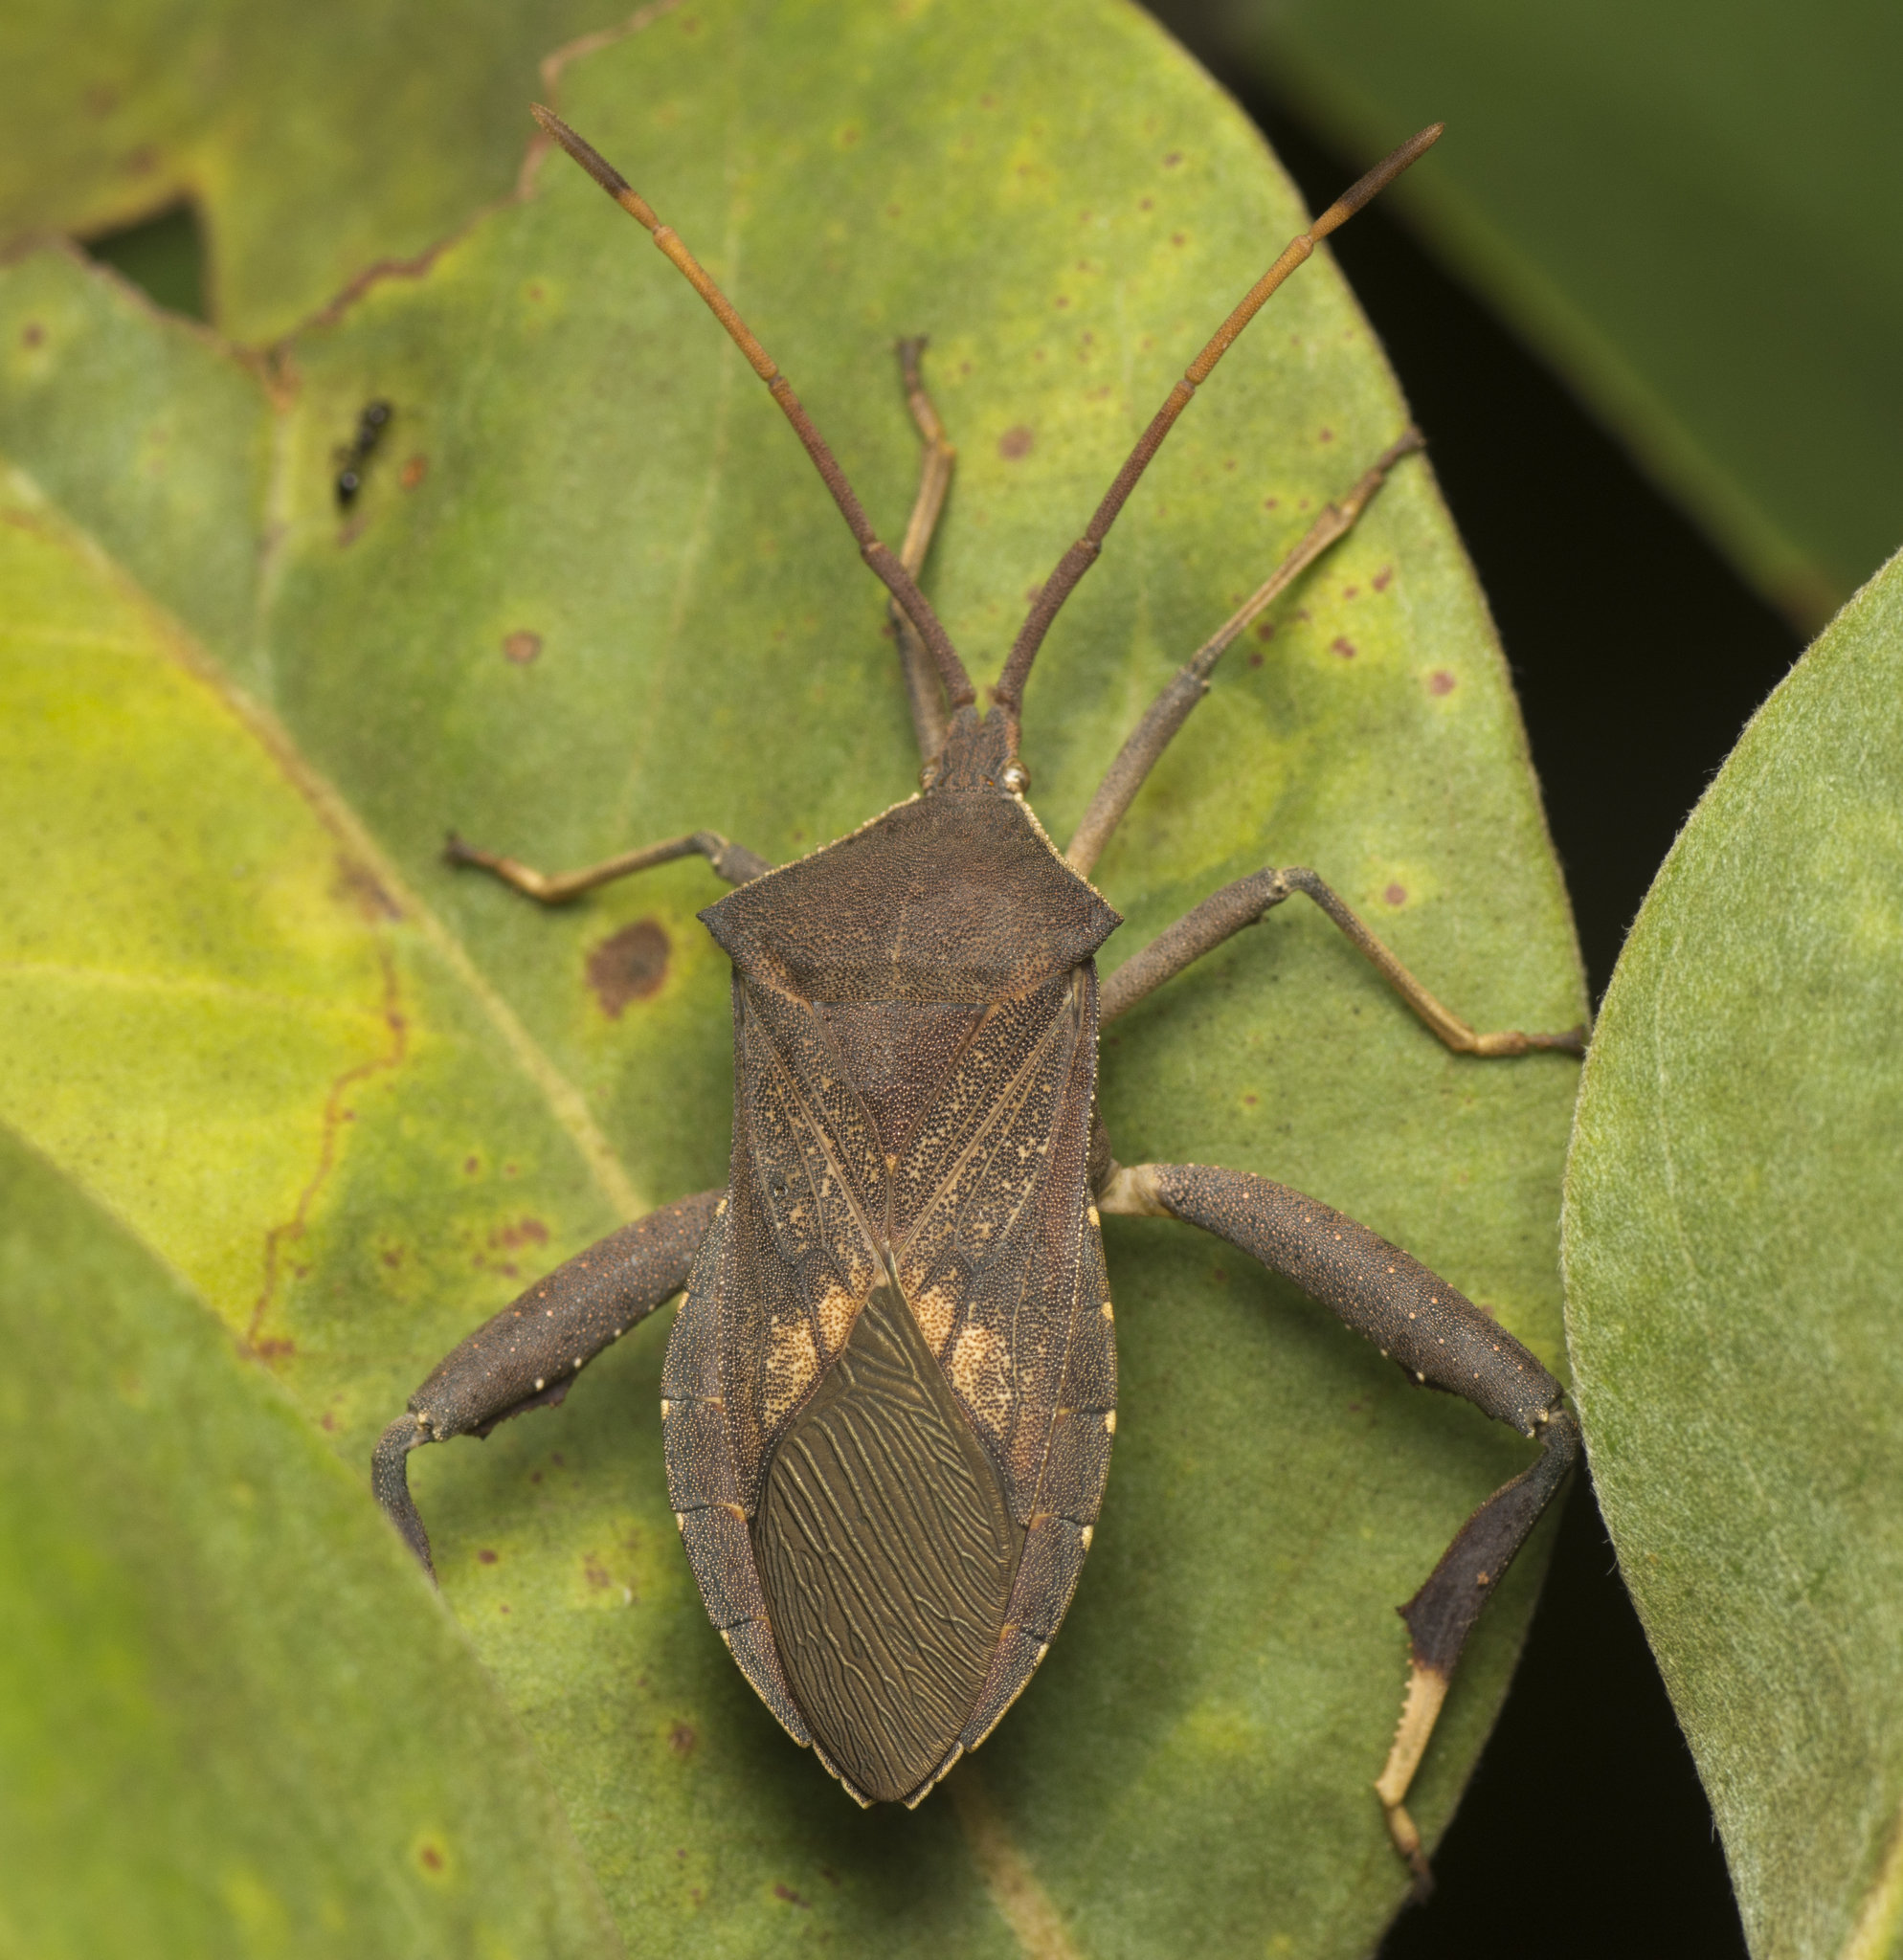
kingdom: Animalia
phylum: Arthropoda
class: Insecta
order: Hemiptera
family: Coreidae
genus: Amorbus
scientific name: Amorbus robustus
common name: Common gum-tree bug
